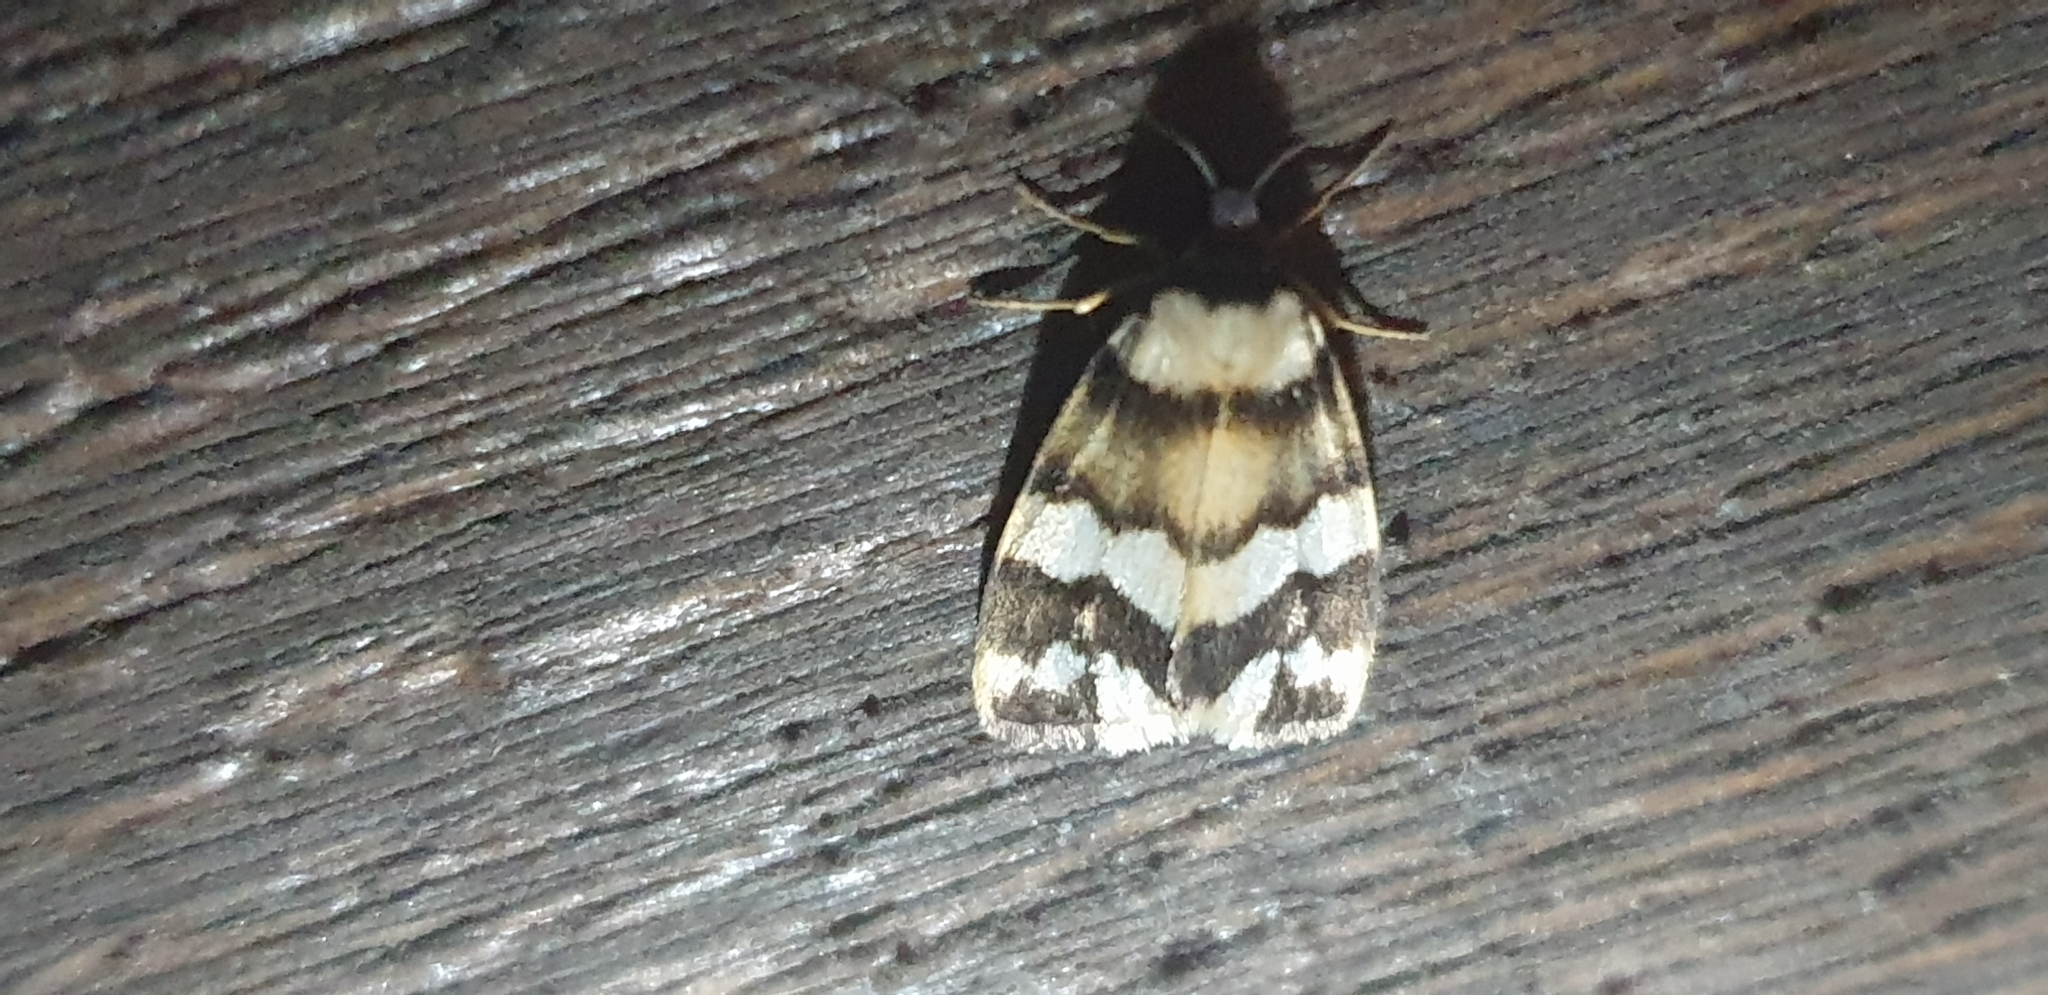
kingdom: Animalia
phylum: Arthropoda
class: Insecta
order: Lepidoptera
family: Erebidae
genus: Termessa
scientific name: Termessa gratiosa
